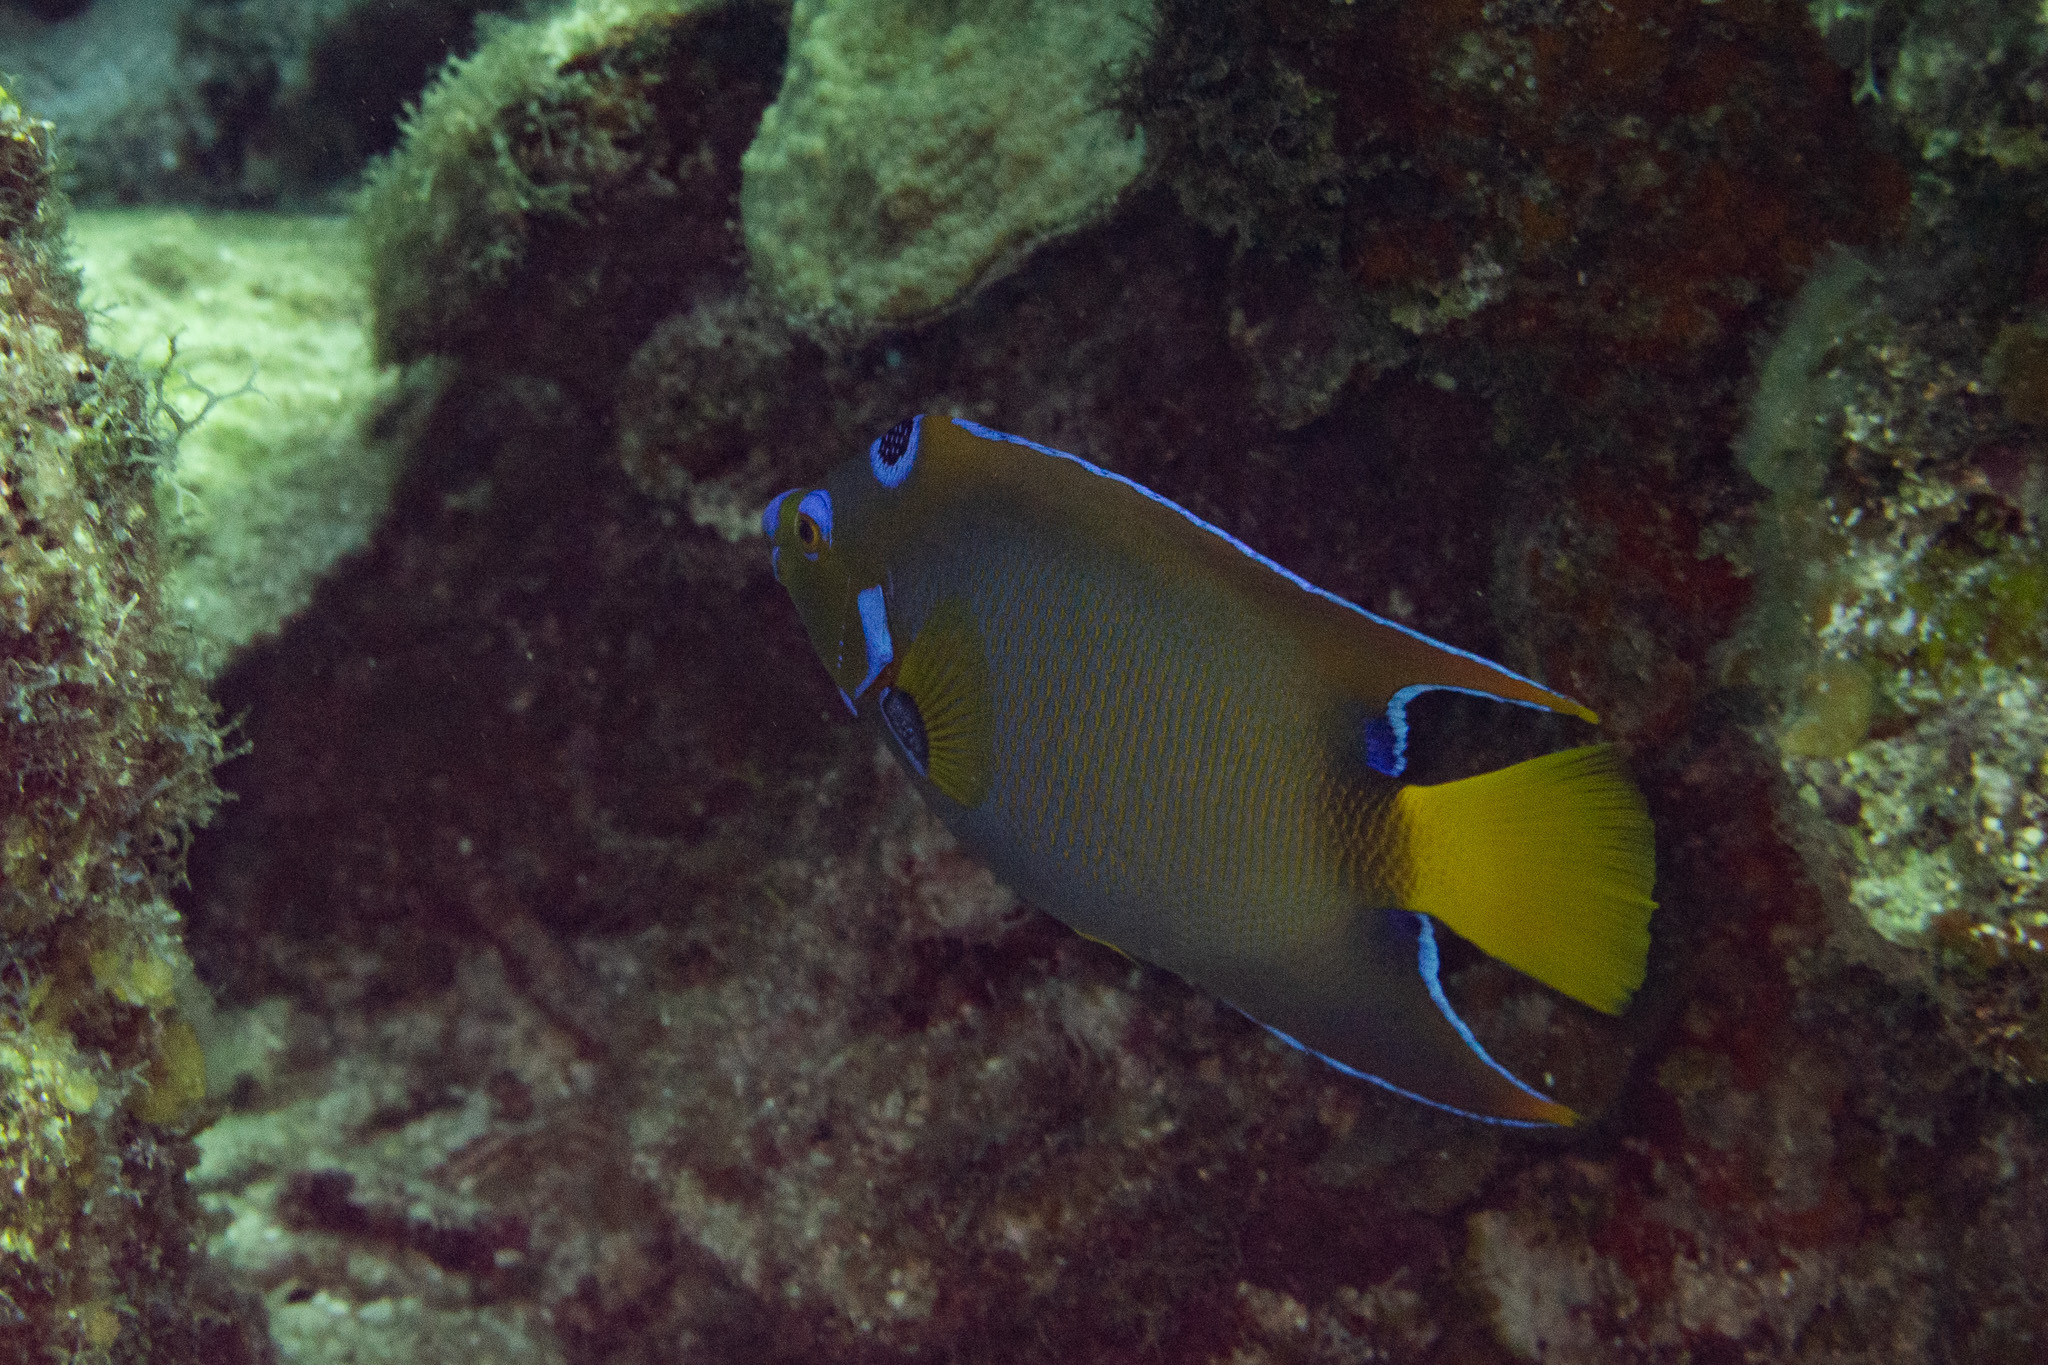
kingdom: Animalia
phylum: Chordata
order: Perciformes
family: Pomacanthidae
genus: Holacanthus
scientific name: Holacanthus ciliaris
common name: Queen angelfish
